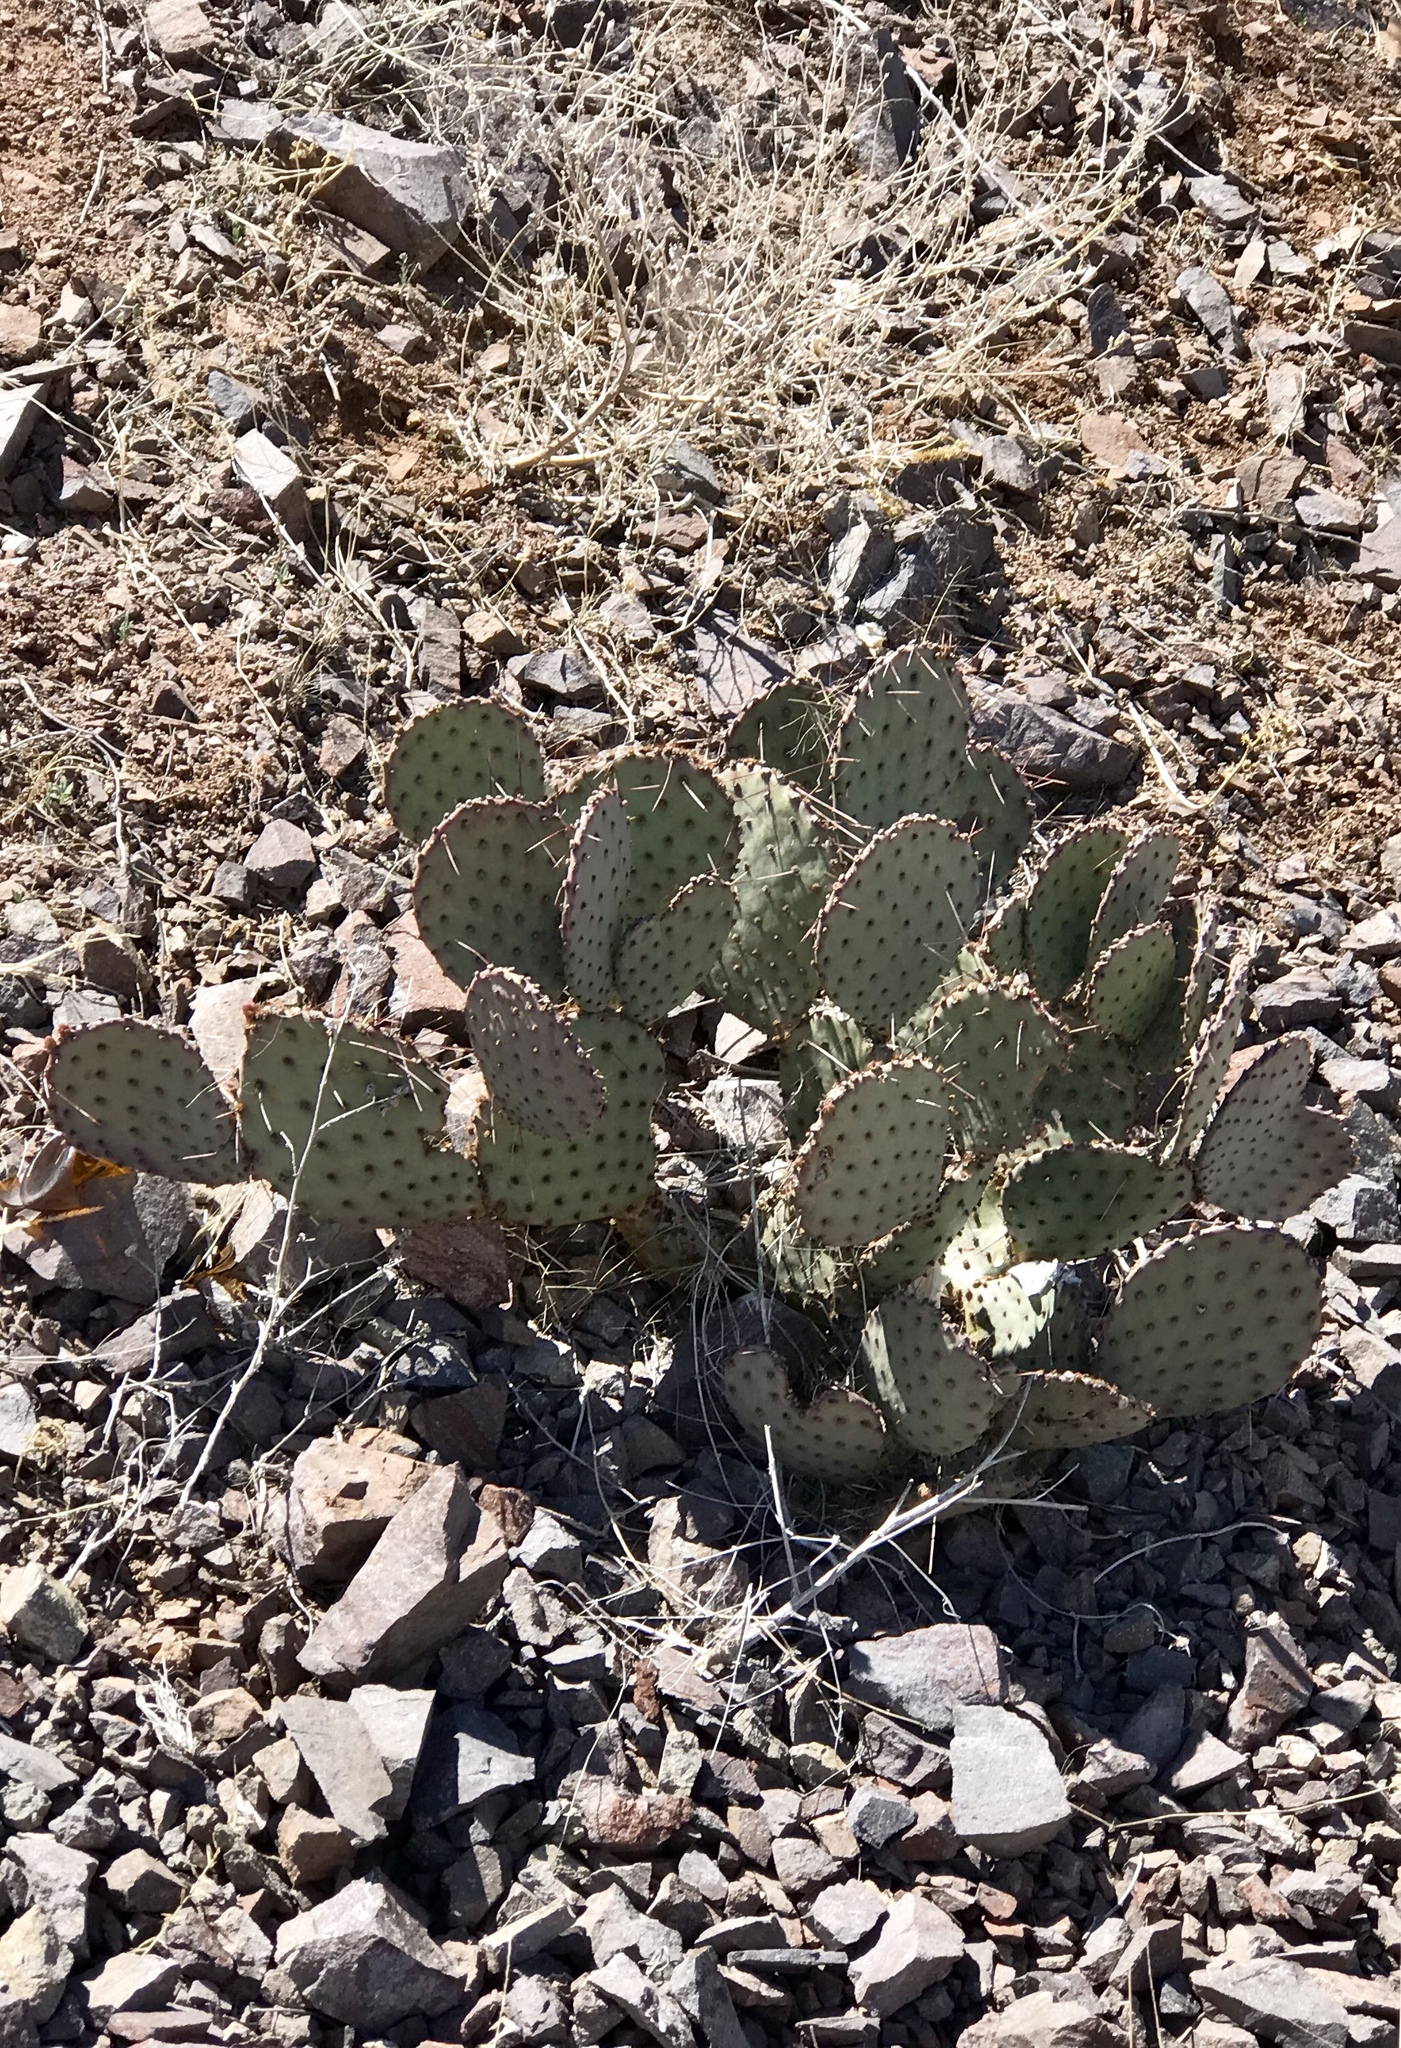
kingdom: Plantae
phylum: Tracheophyta
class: Magnoliopsida
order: Caryophyllales
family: Cactaceae
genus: Opuntia
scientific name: Opuntia macrocentra
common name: Purple prickly-pear
